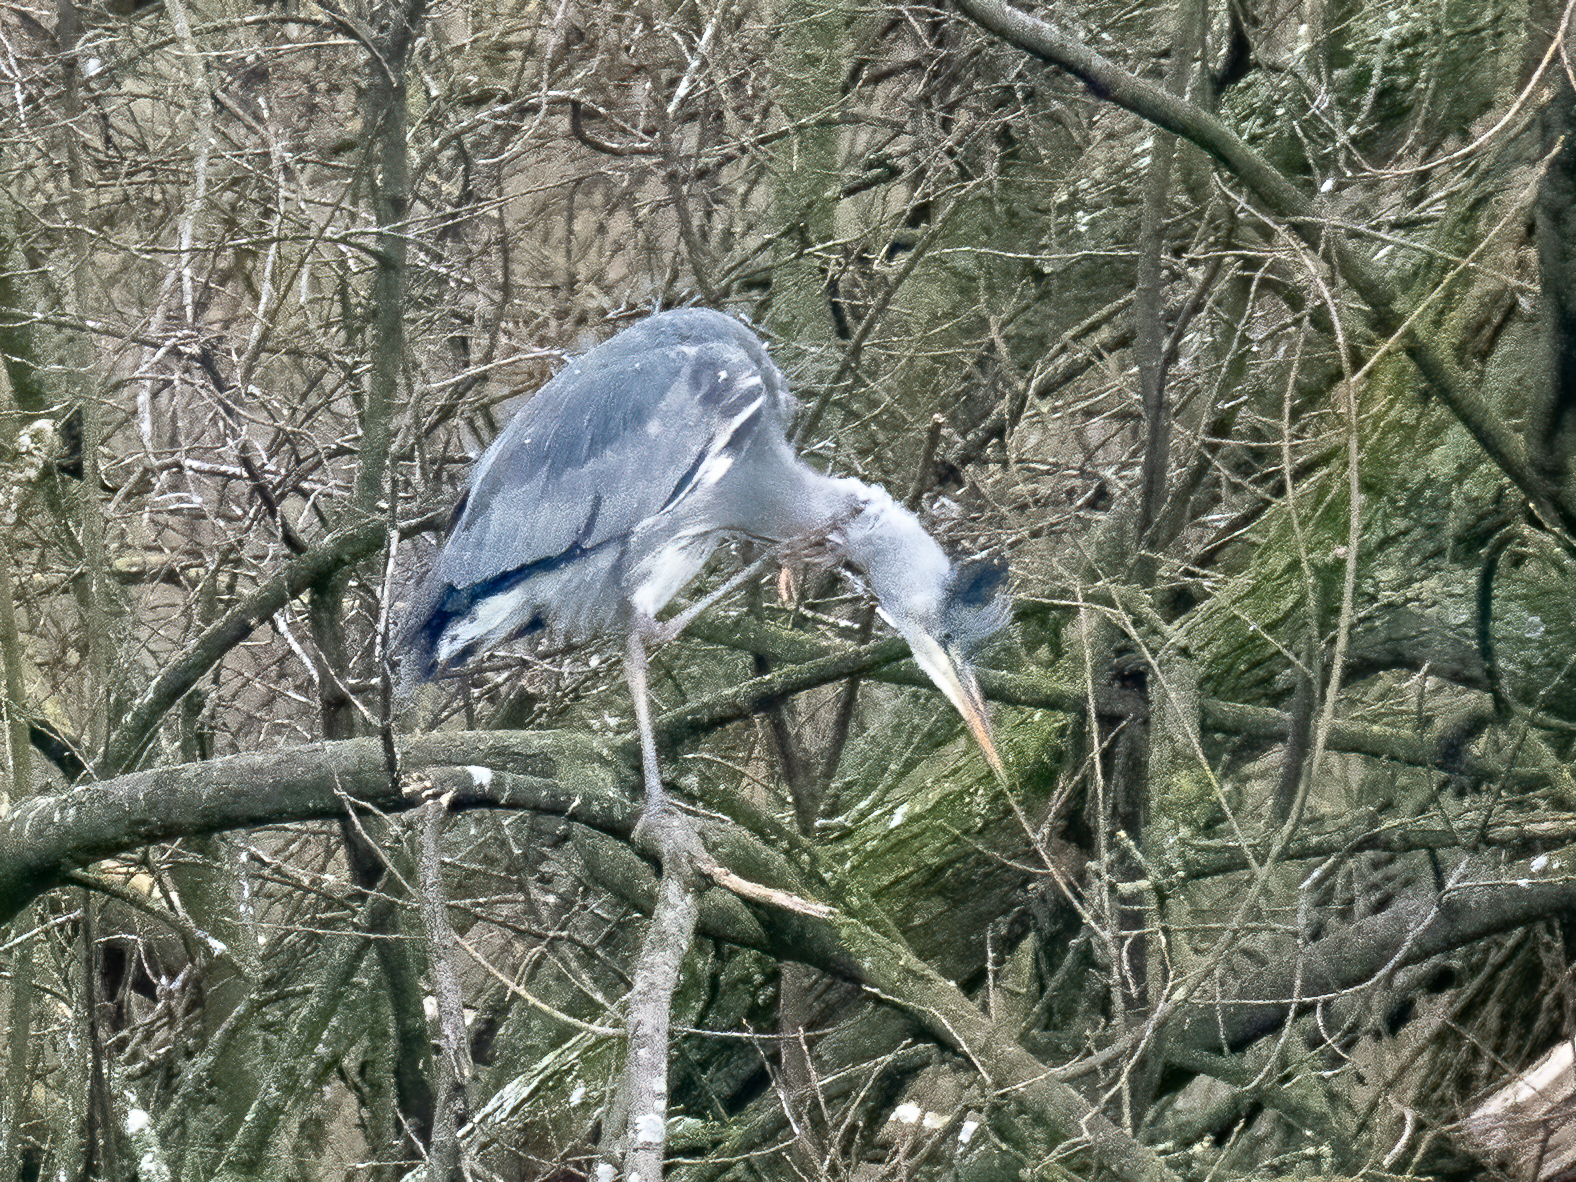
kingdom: Animalia
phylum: Chordata
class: Aves
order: Pelecaniformes
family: Ardeidae
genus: Ardea
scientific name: Ardea cinerea
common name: Grey heron
